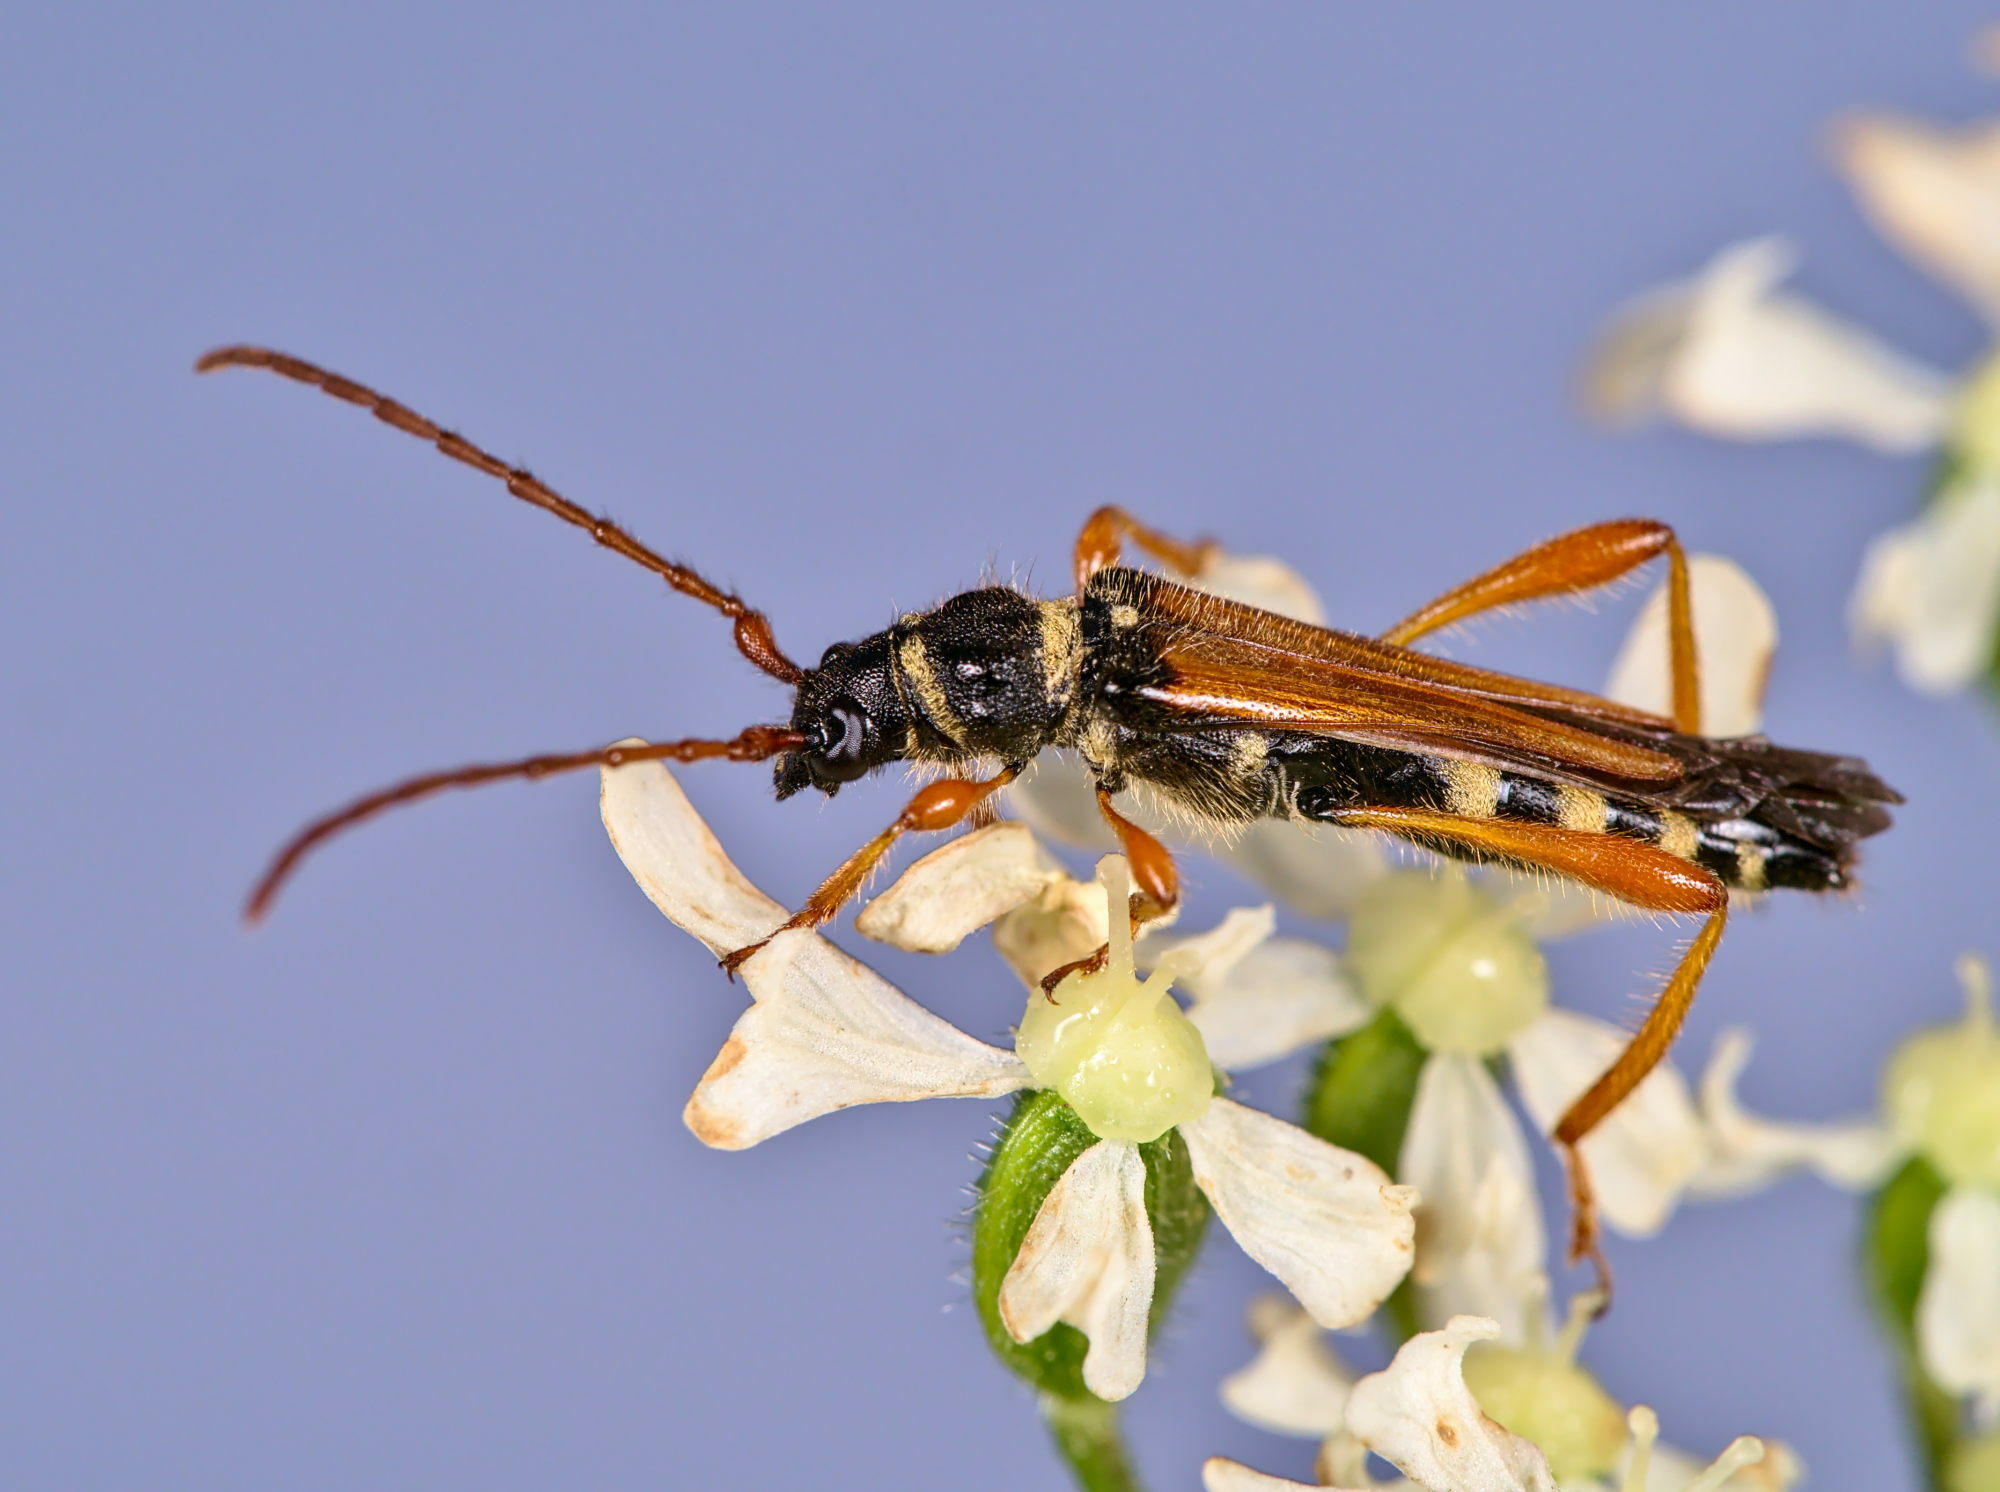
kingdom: Animalia
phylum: Arthropoda
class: Insecta
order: Coleoptera
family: Cerambycidae
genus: Stenopterus
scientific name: Stenopterus flavicornis
